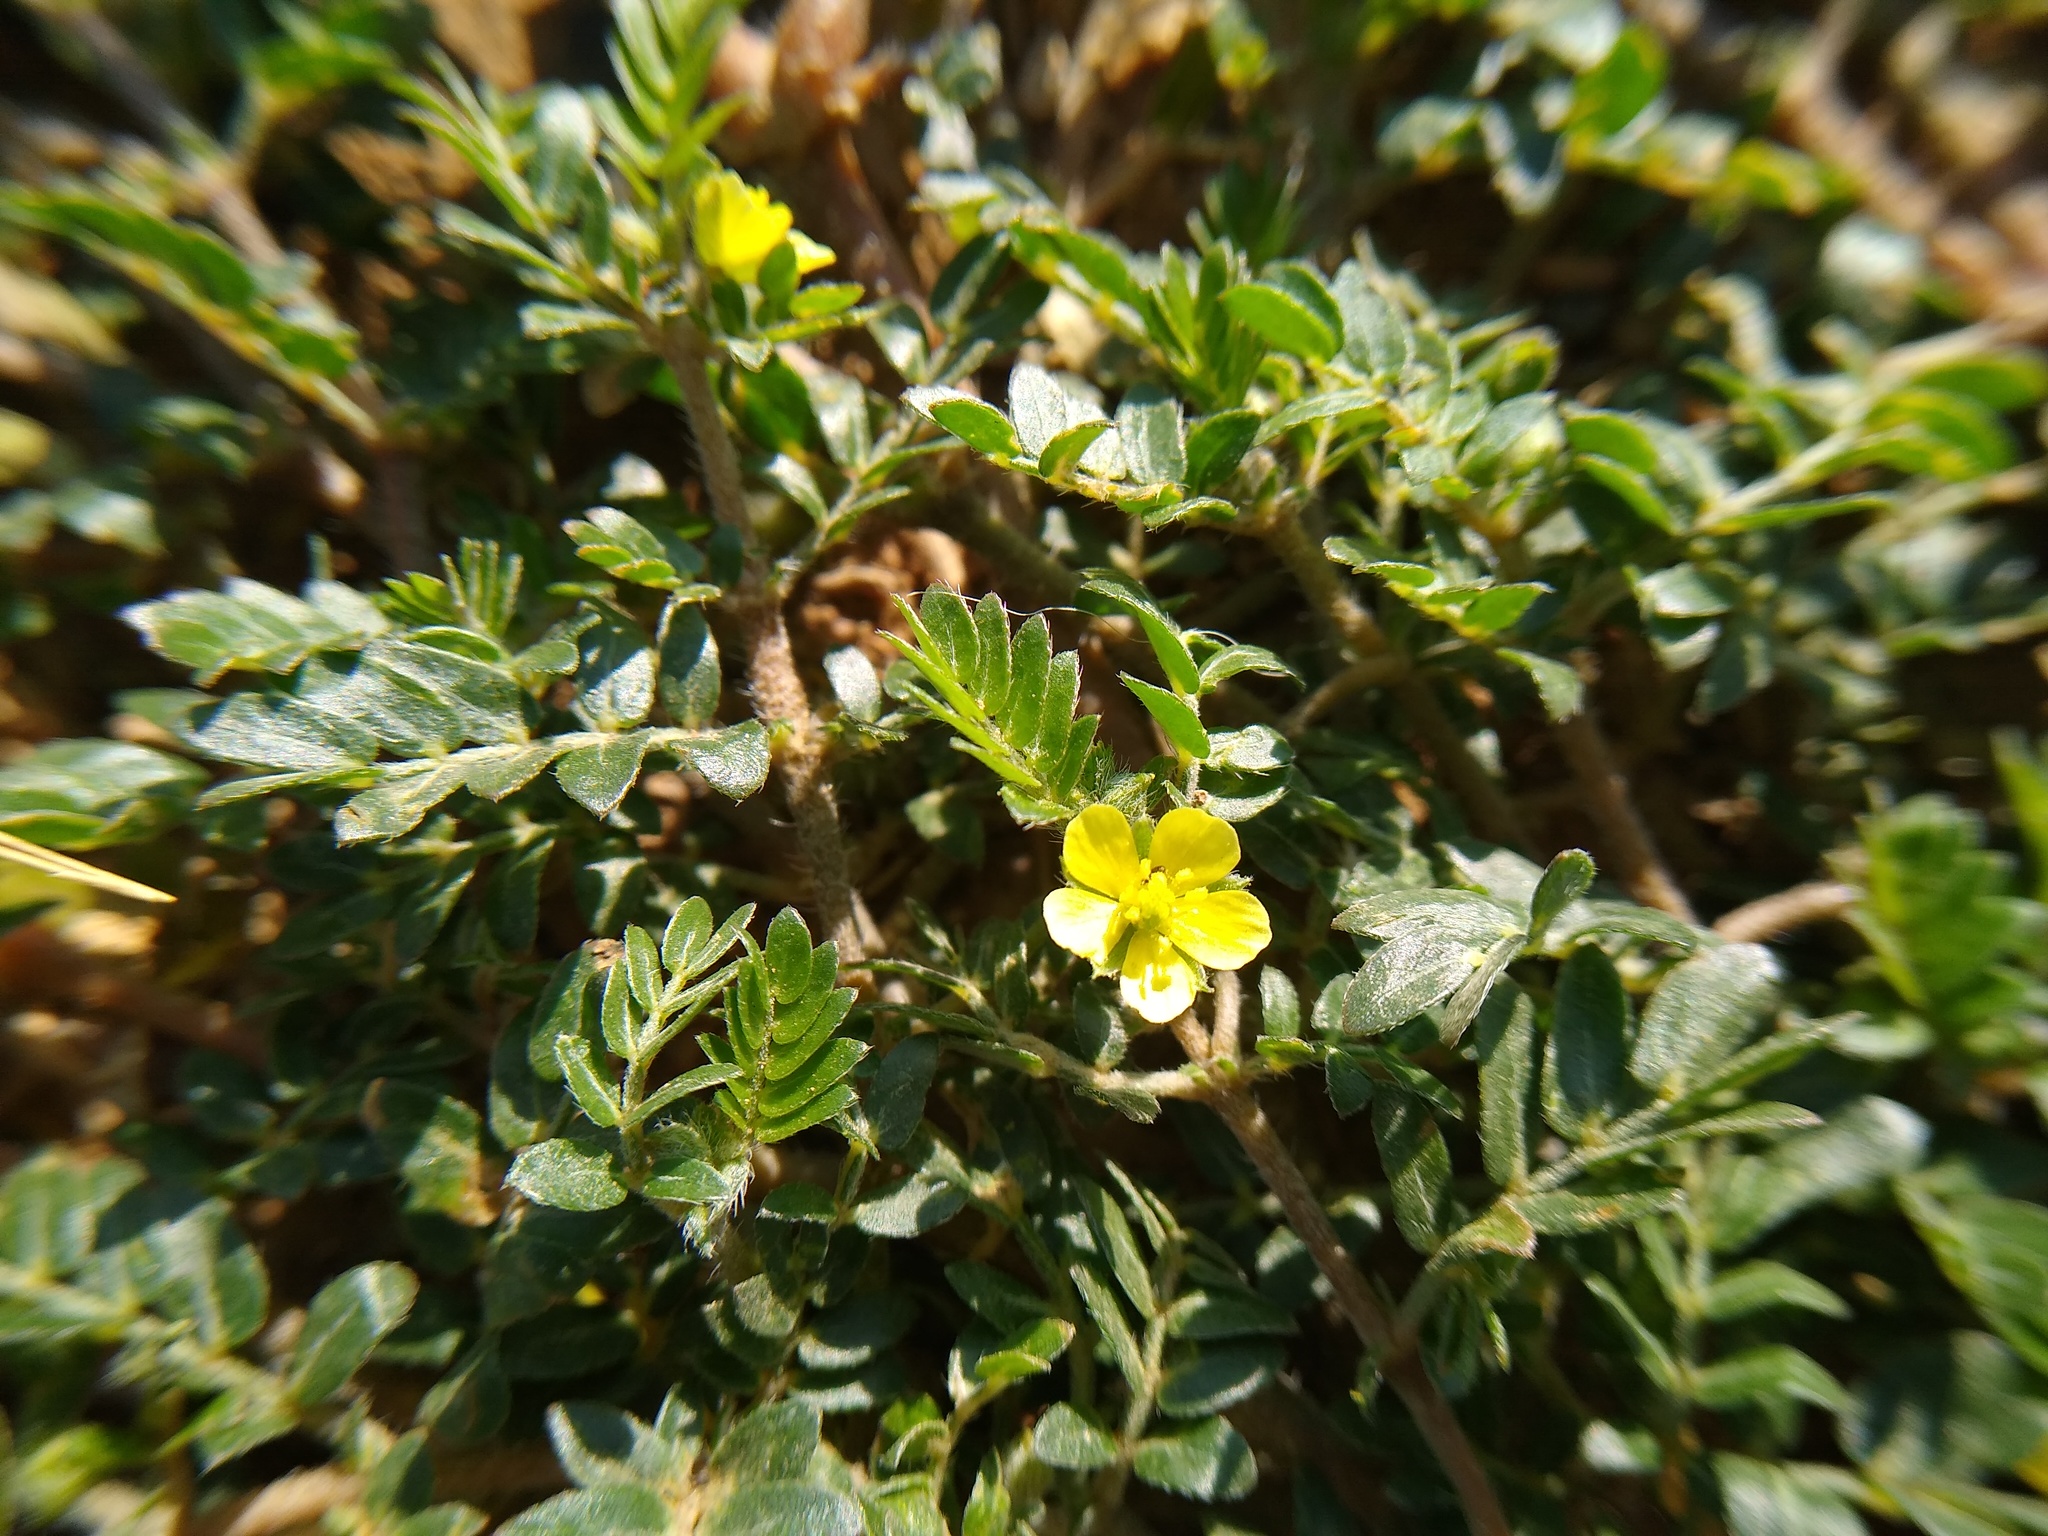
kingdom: Plantae
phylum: Tracheophyta
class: Magnoliopsida
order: Zygophyllales
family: Zygophyllaceae
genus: Tribulus
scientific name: Tribulus terrestris
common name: Puncturevine
